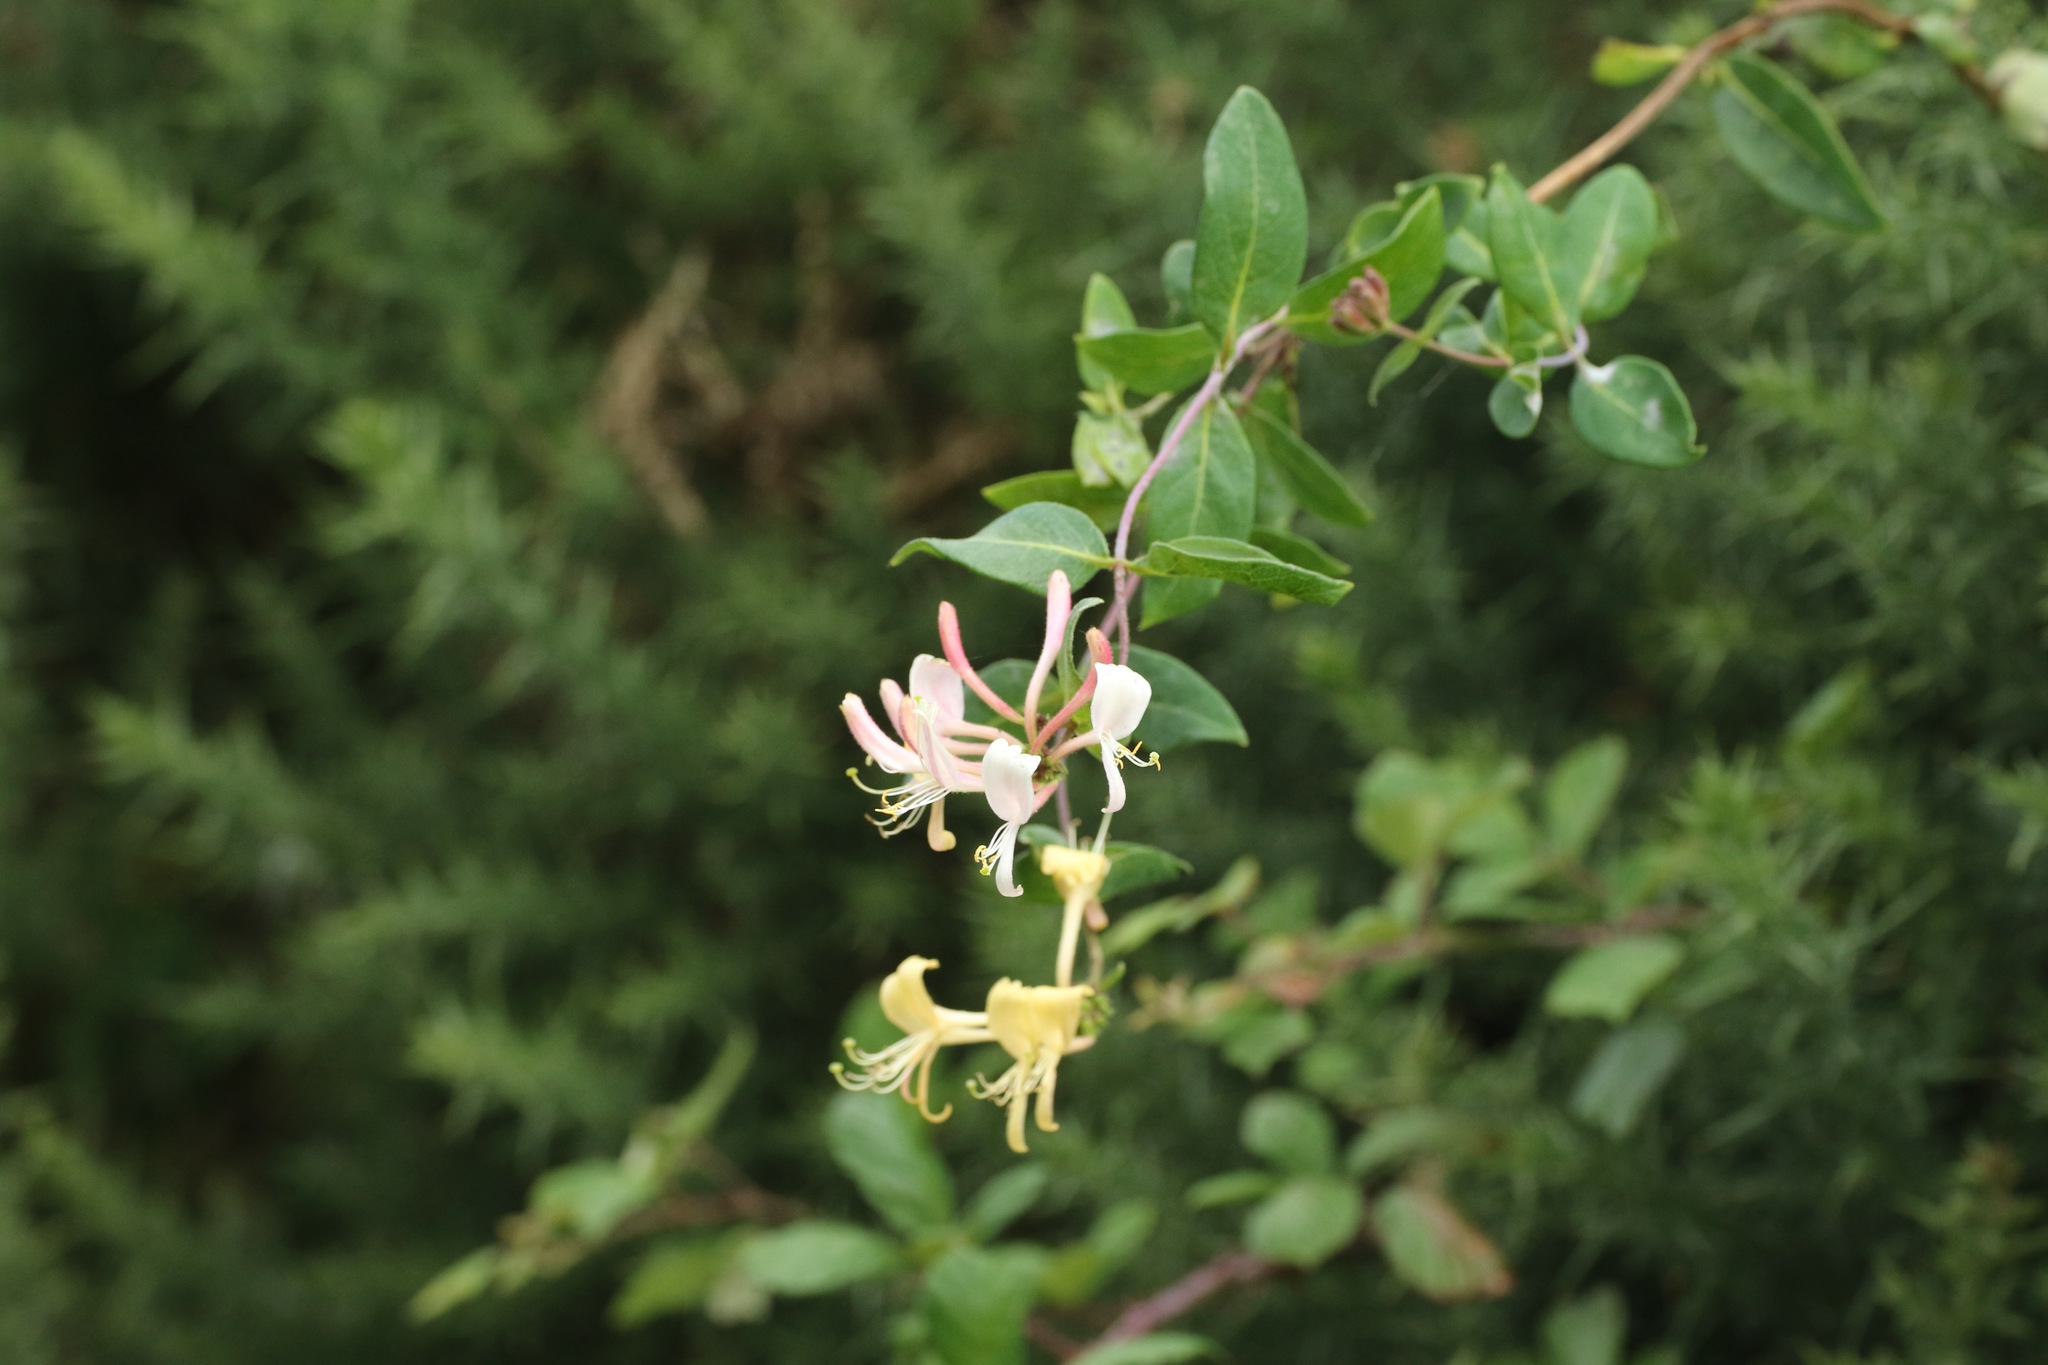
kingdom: Plantae
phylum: Tracheophyta
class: Magnoliopsida
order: Dipsacales
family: Caprifoliaceae
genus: Lonicera
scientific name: Lonicera periclymenum
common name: European honeysuckle
